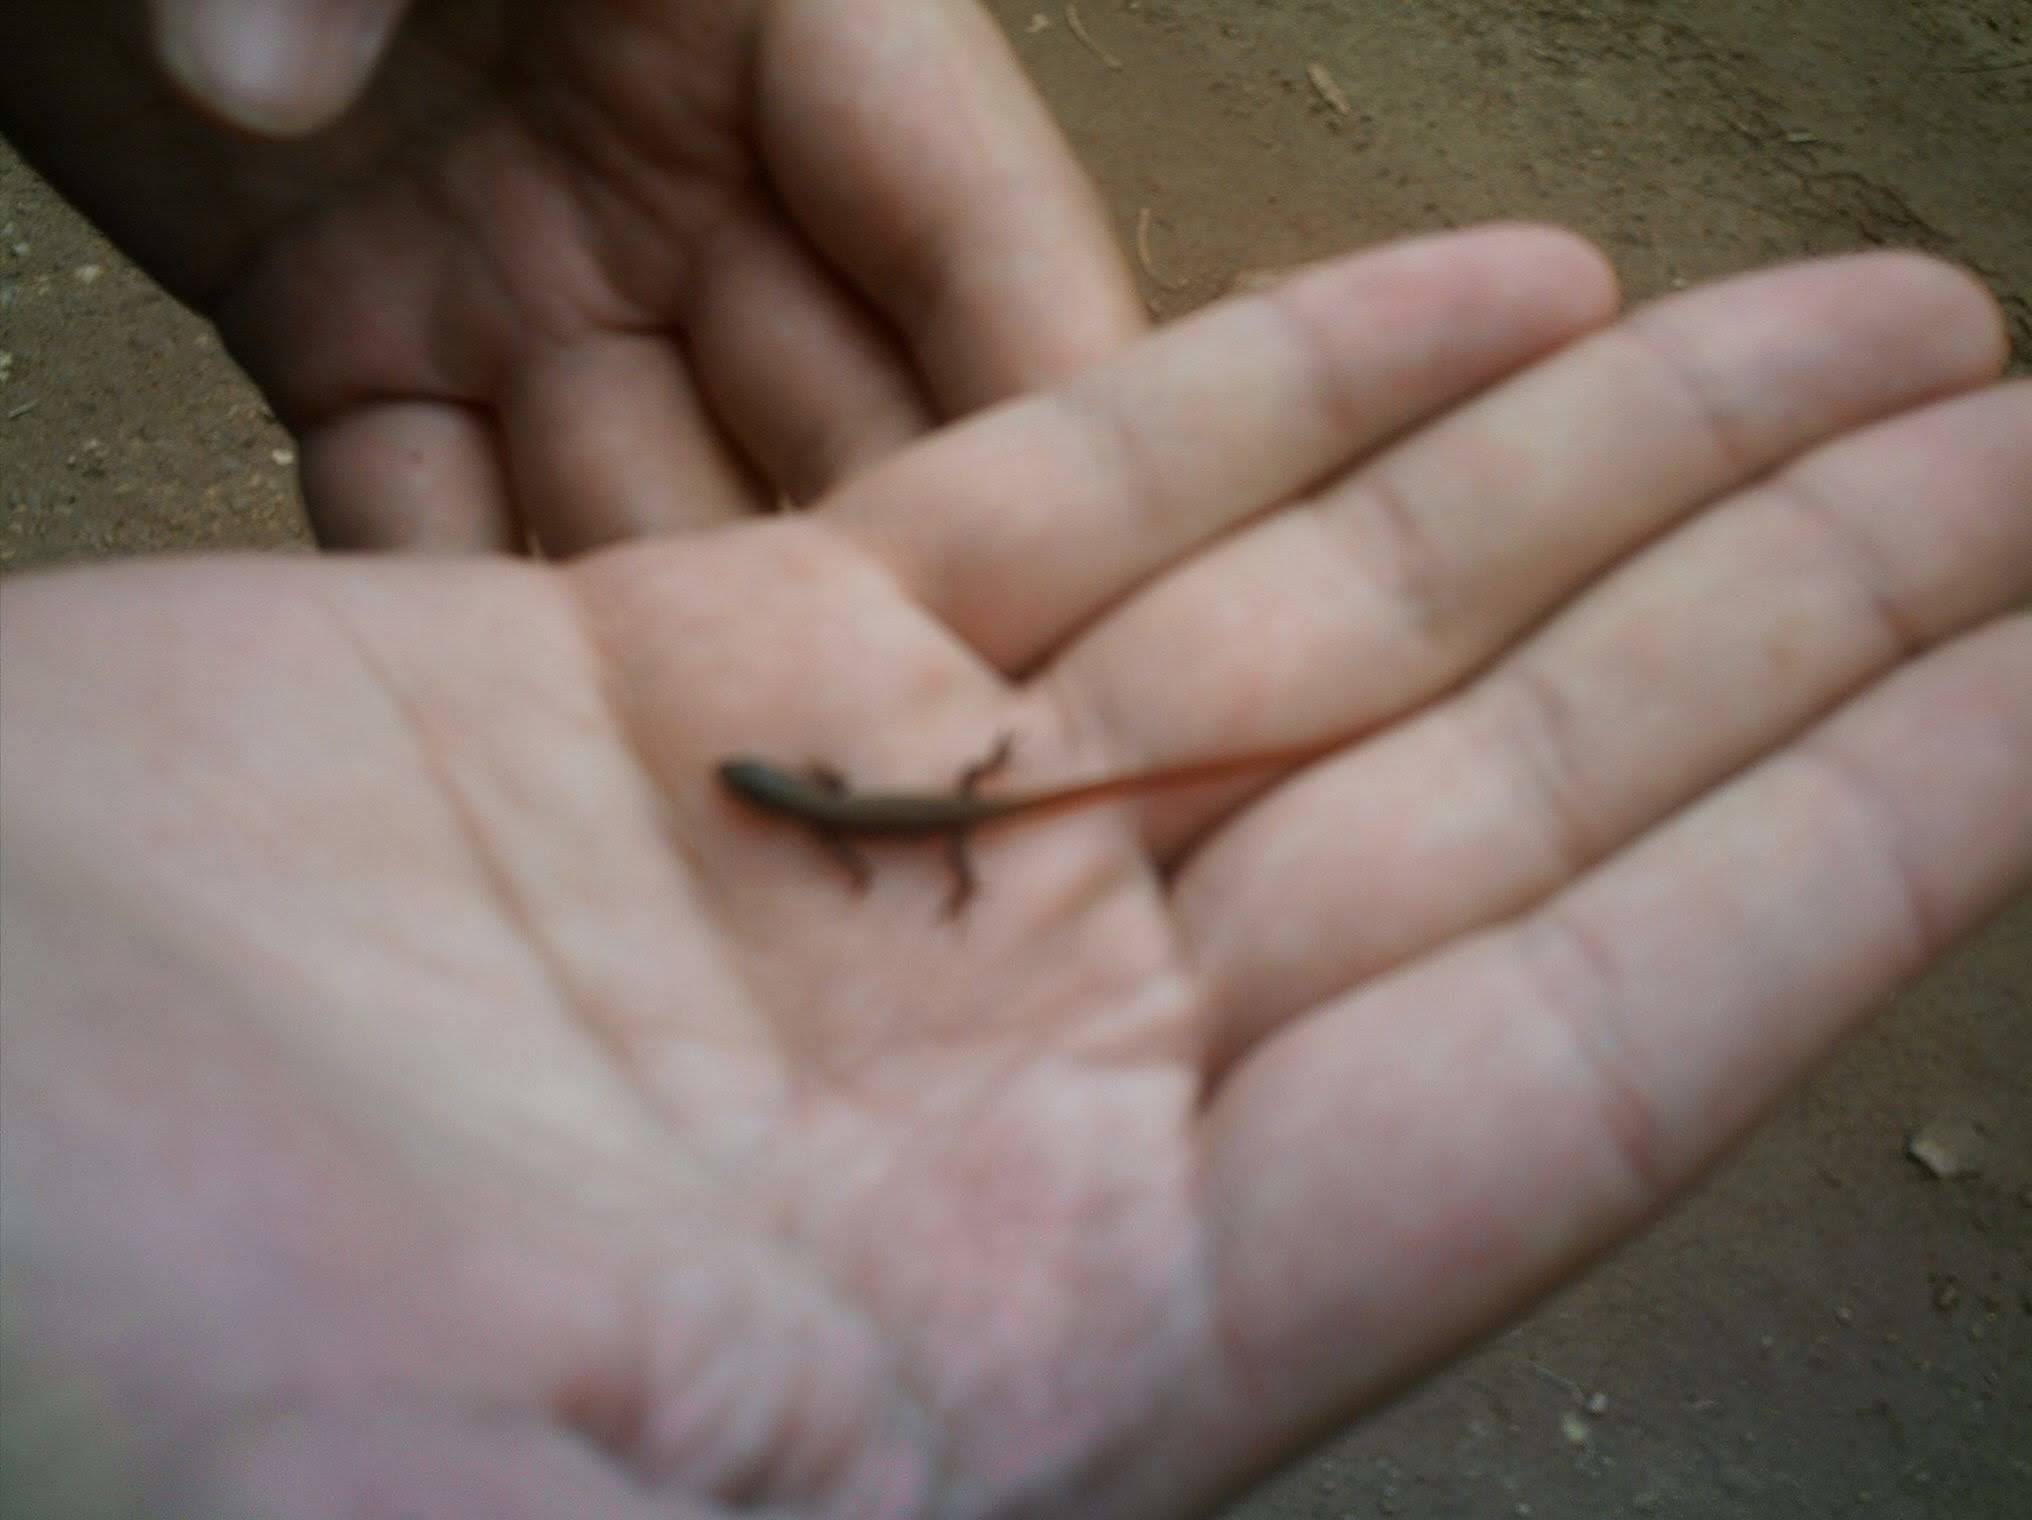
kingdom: Animalia
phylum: Chordata
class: Squamata
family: Gymnophthalmidae
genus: Cercosaura
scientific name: Cercosaura schreibersii
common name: Schreibers' many-fingered teiid
